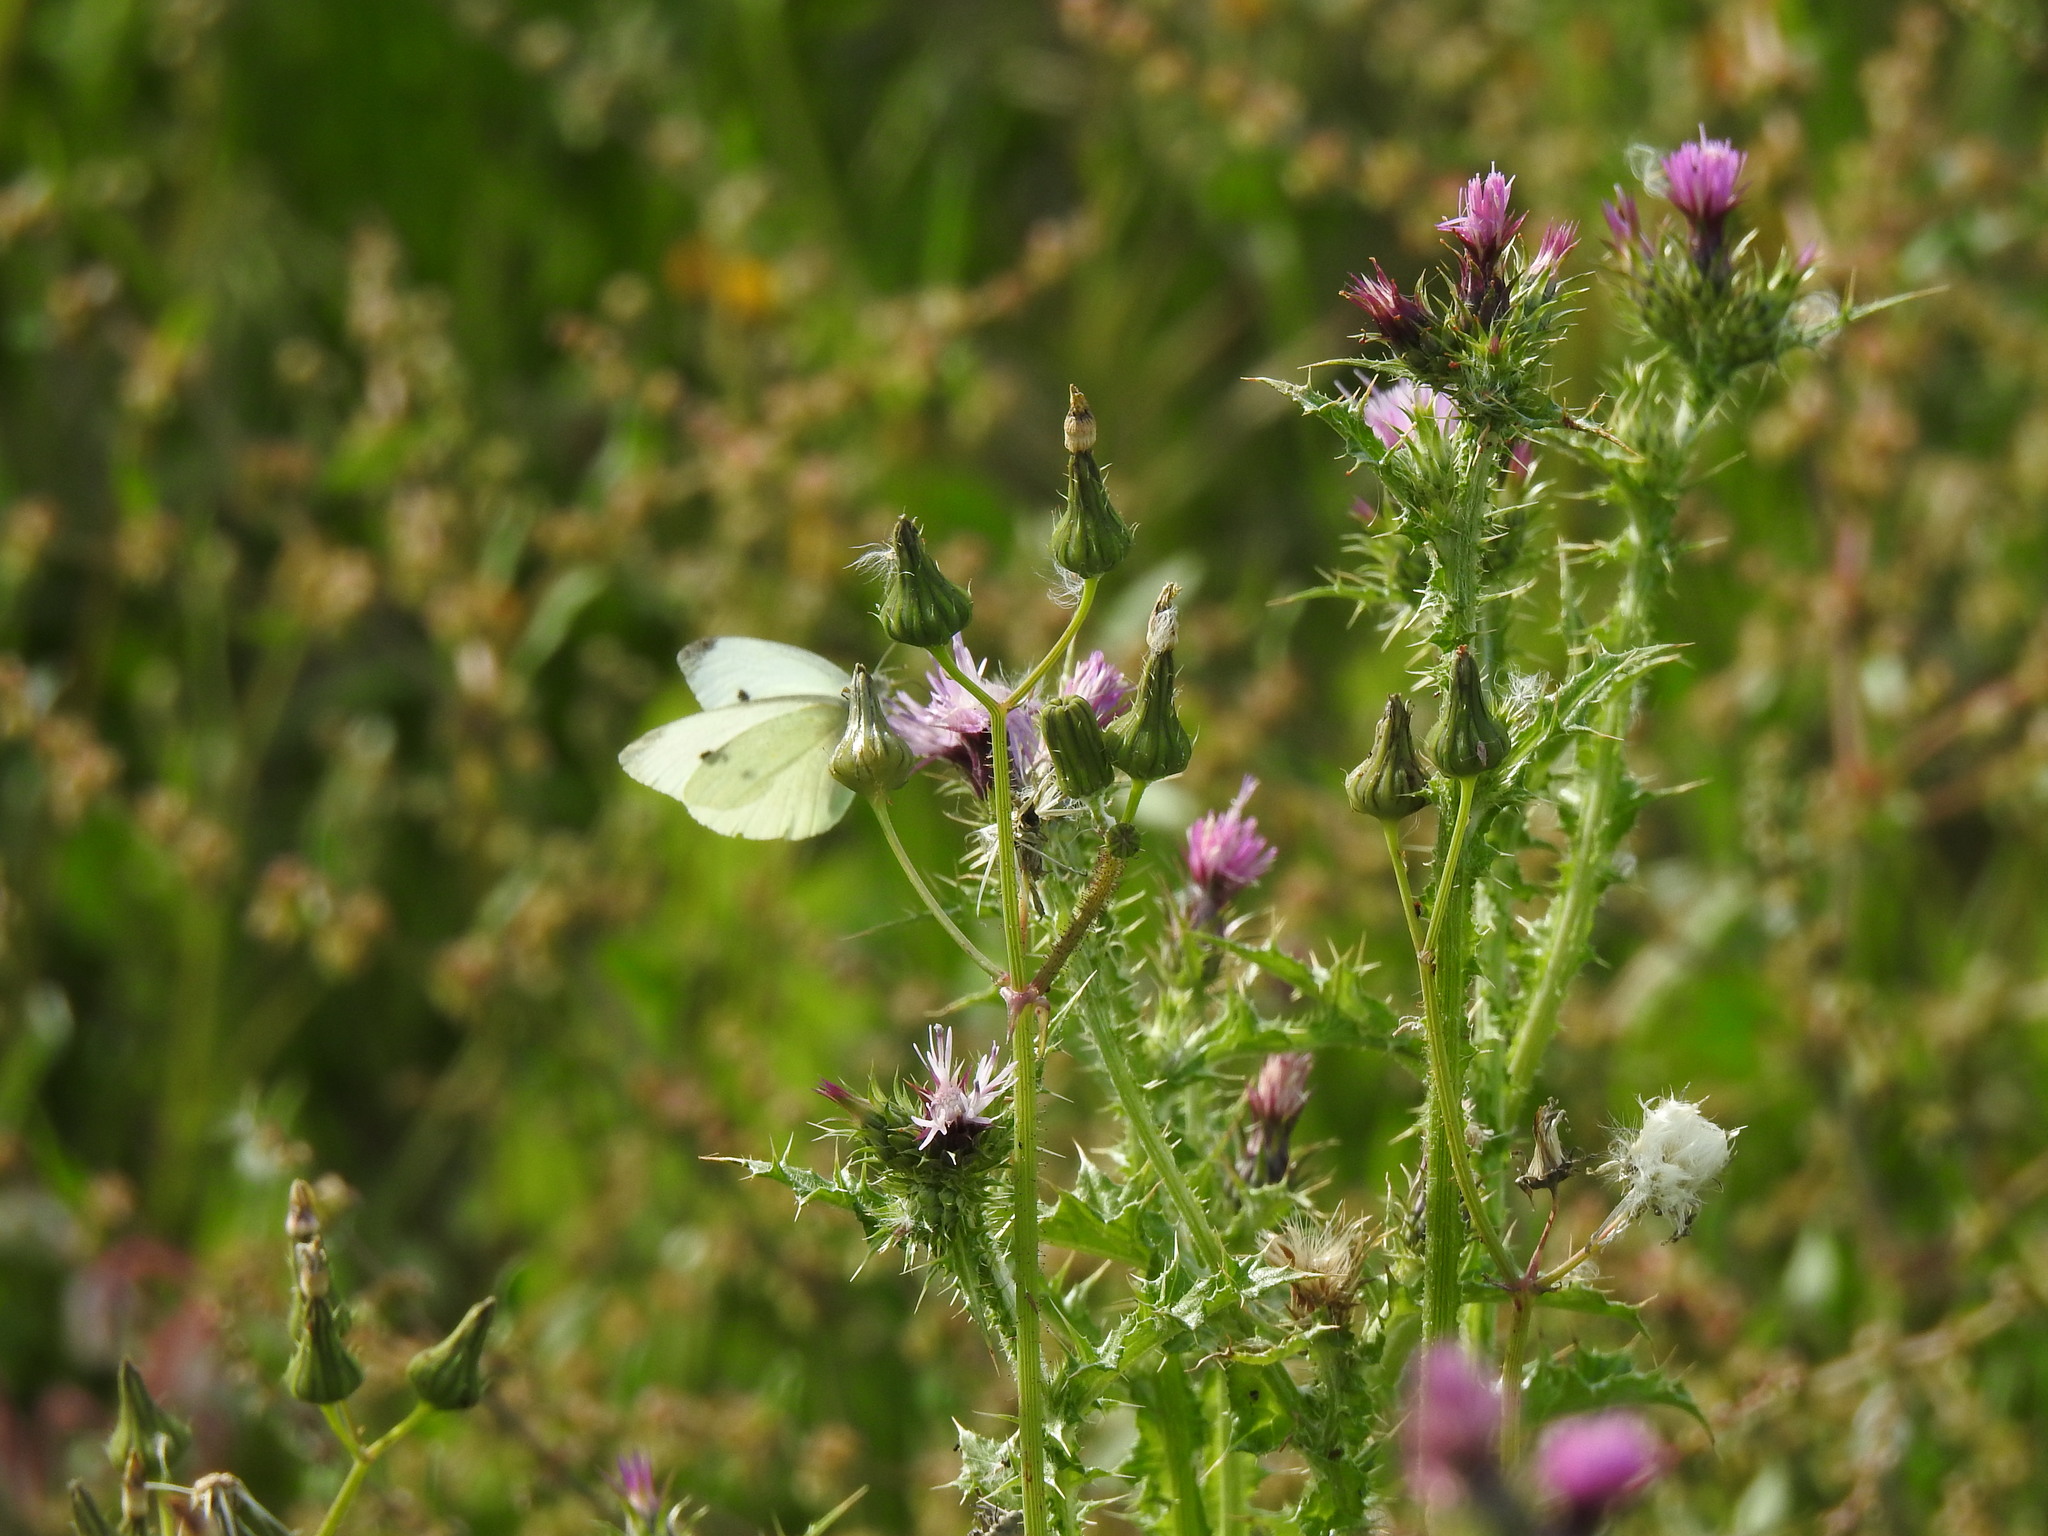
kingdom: Animalia
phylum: Arthropoda
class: Insecta
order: Lepidoptera
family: Pieridae
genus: Pieris
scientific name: Pieris rapae
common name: Small white
